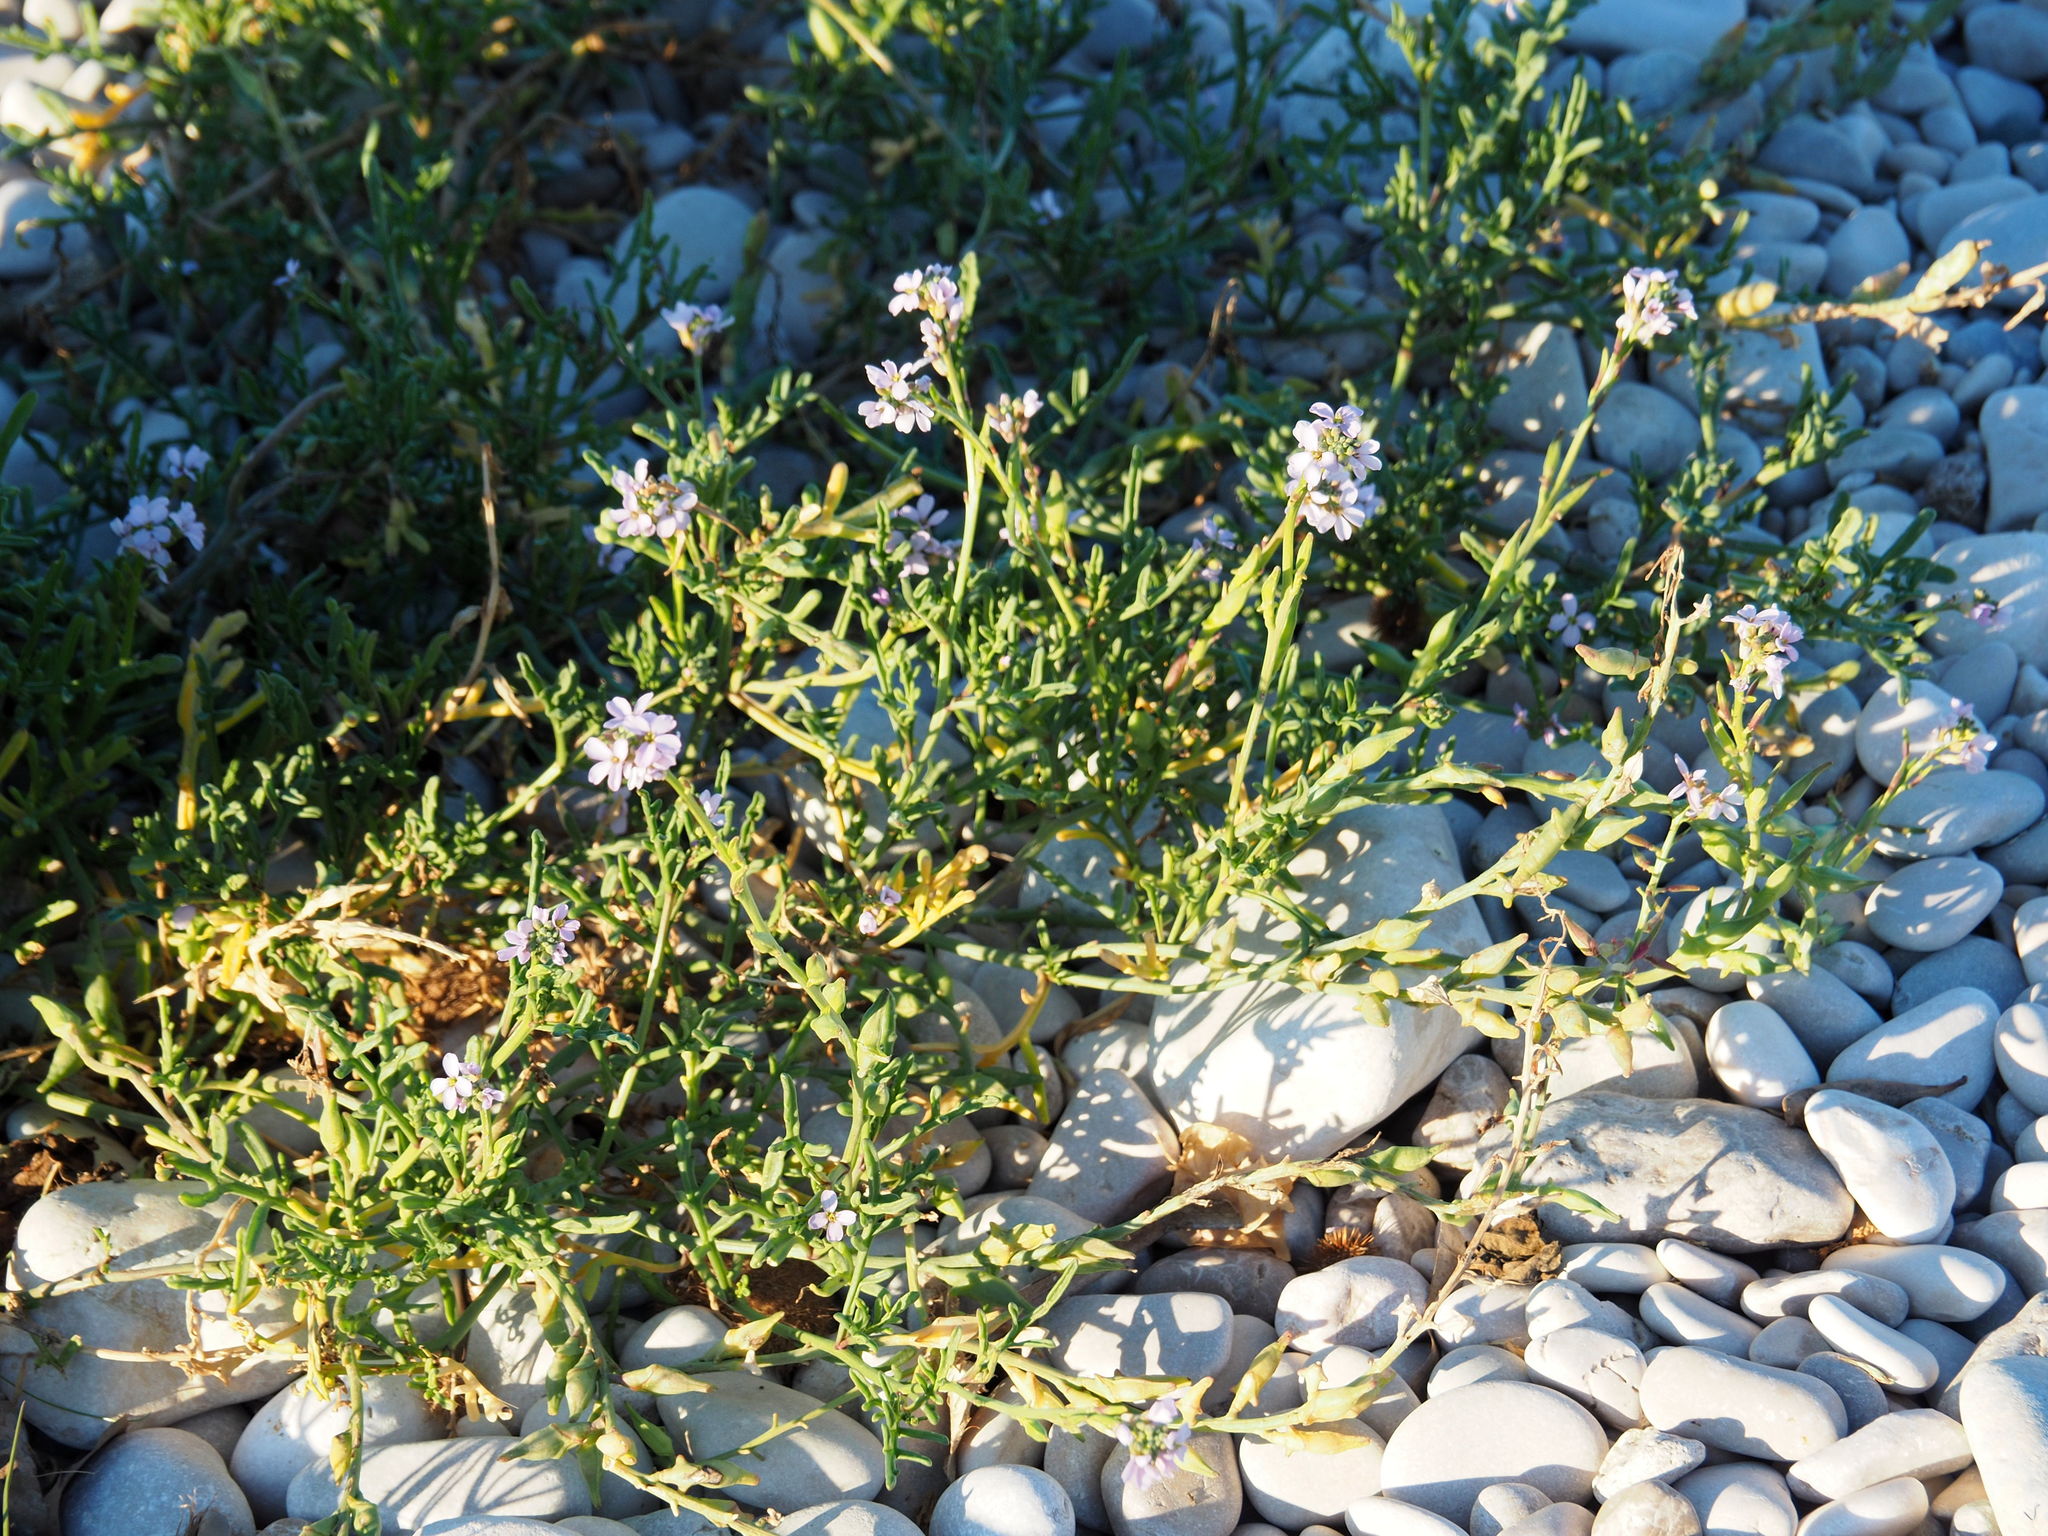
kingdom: Plantae
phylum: Tracheophyta
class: Magnoliopsida
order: Brassicales
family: Brassicaceae
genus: Cakile
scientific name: Cakile maritima
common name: Sea rocket
